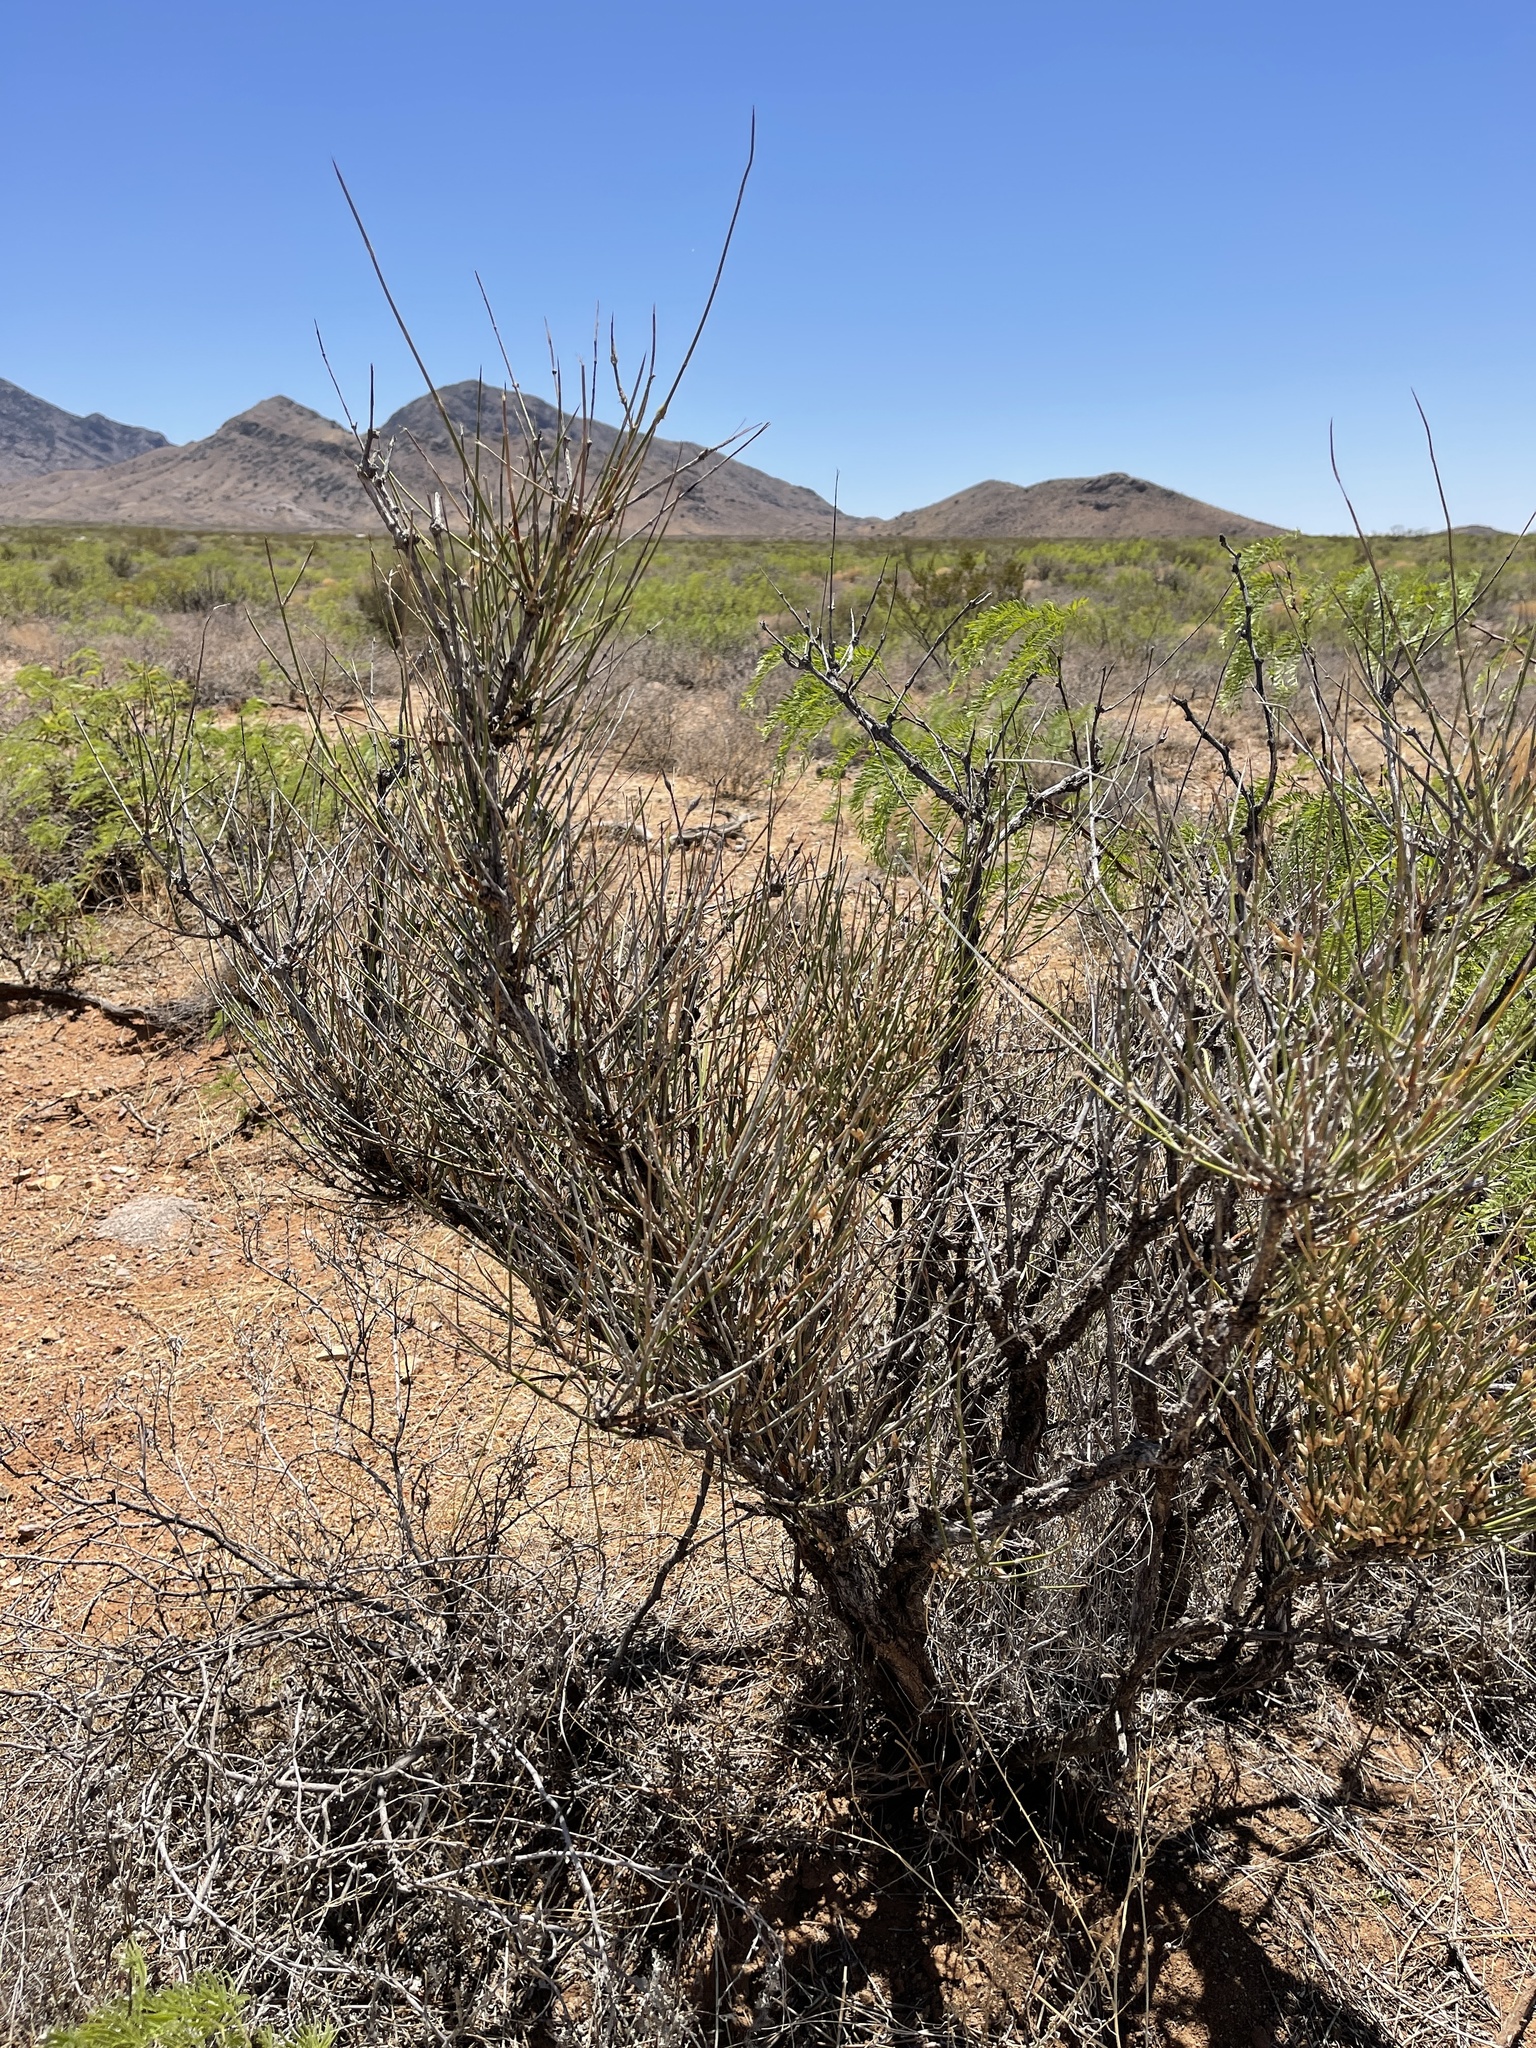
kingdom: Plantae
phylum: Tracheophyta
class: Gnetopsida
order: Ephedrales
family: Ephedraceae
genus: Ephedra
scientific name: Ephedra trifurca
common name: Mexican-tea
